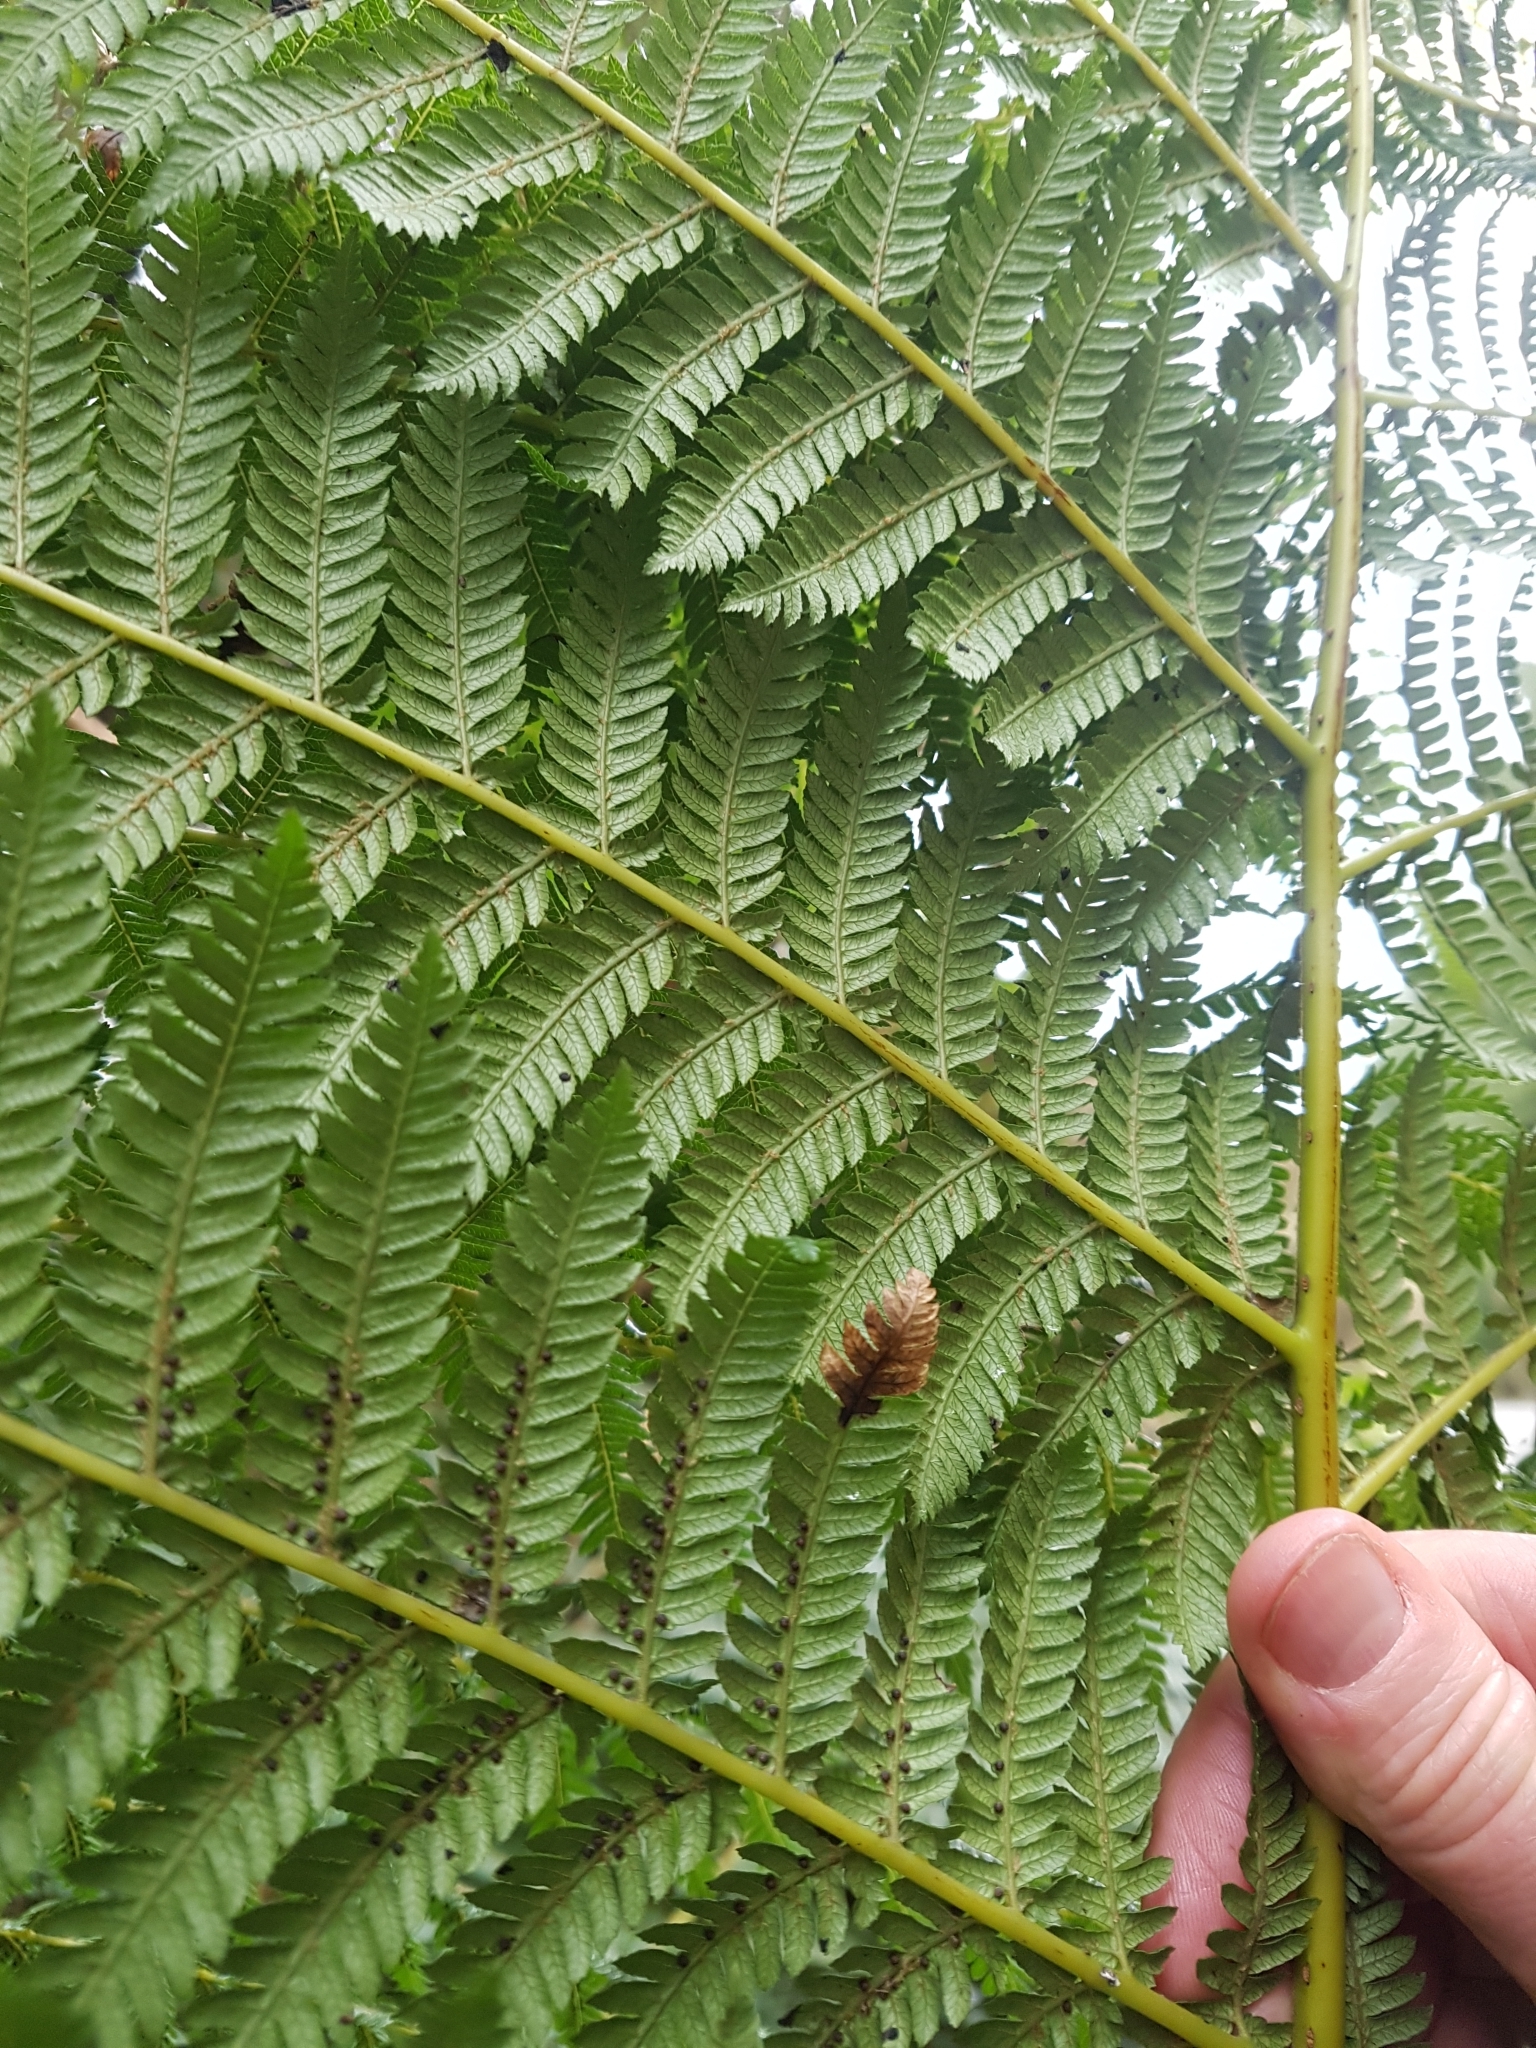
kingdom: Plantae
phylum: Tracheophyta
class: Polypodiopsida
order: Cyatheales
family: Dicksoniaceae
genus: Dicksonia
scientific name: Dicksonia fibrosa
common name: Golden tree fern
